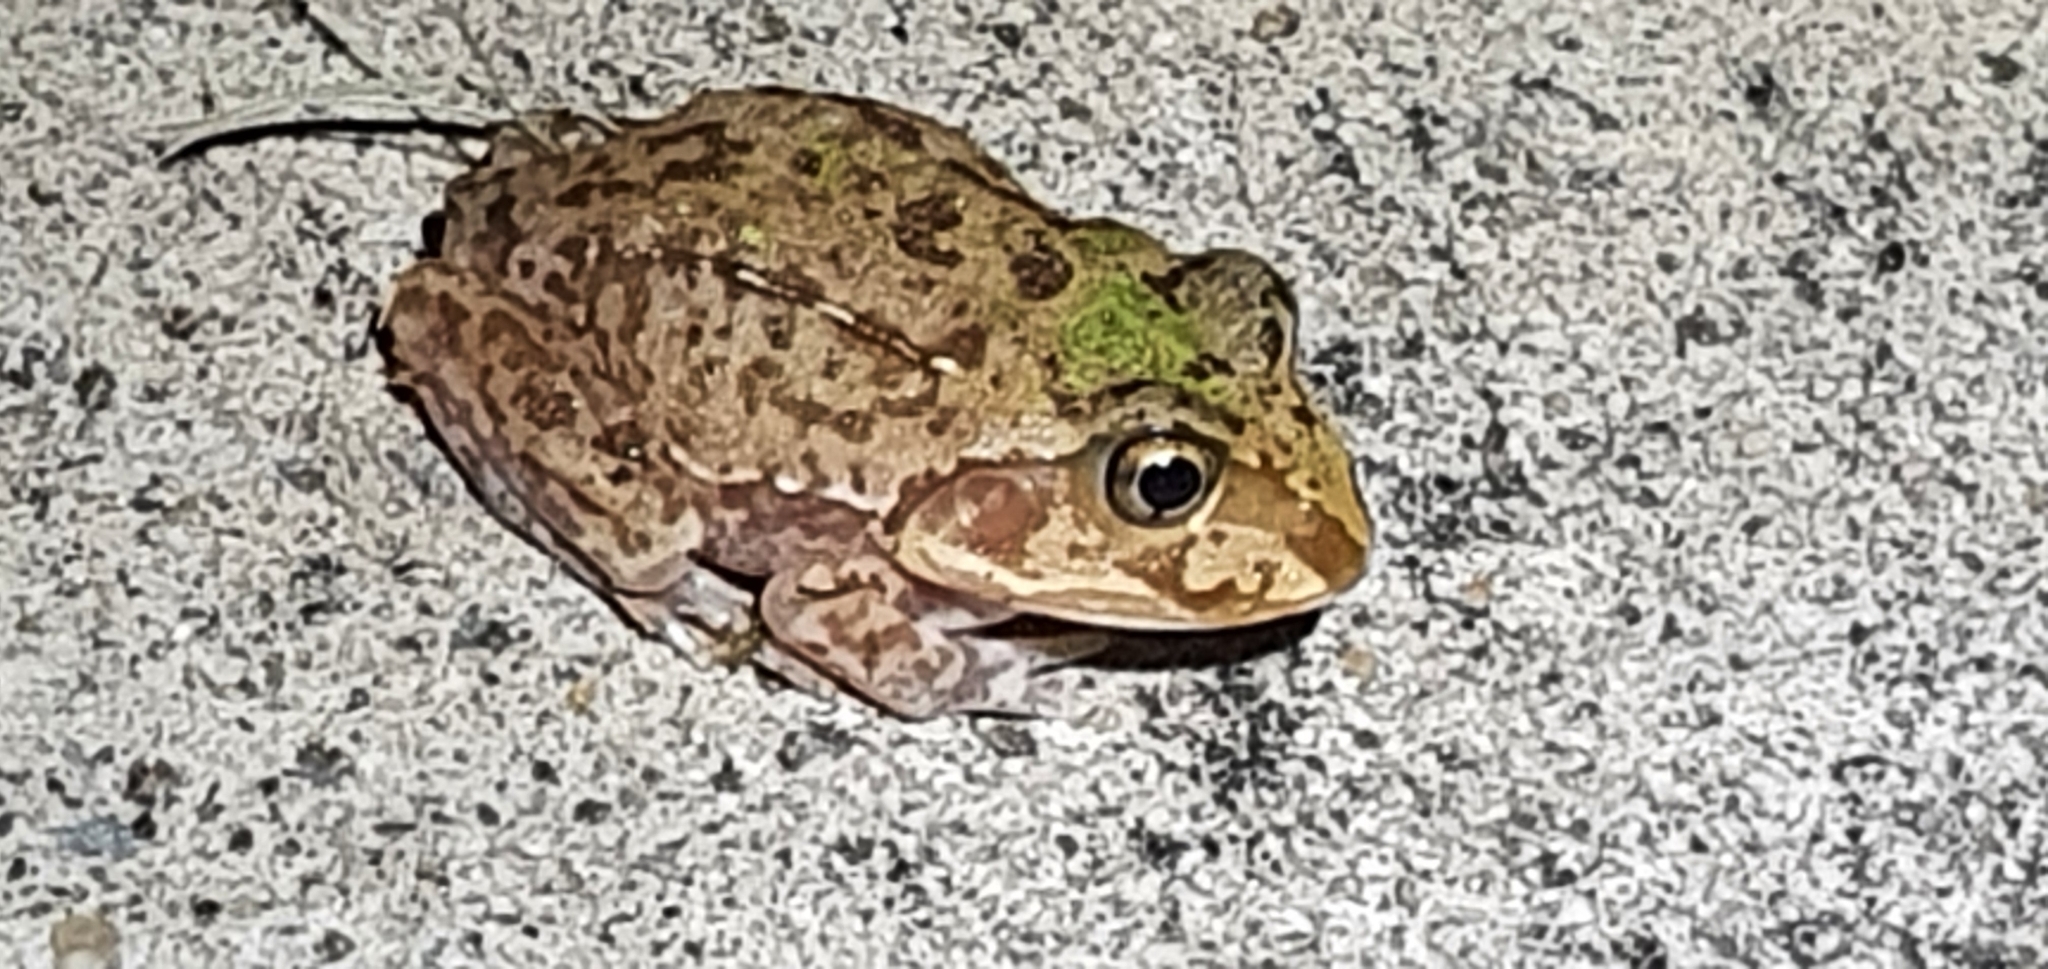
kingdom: Animalia
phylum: Chordata
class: Amphibia
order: Anura
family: Pelodryadidae
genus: Ranoidea
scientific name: Ranoidea novaehollandiae
